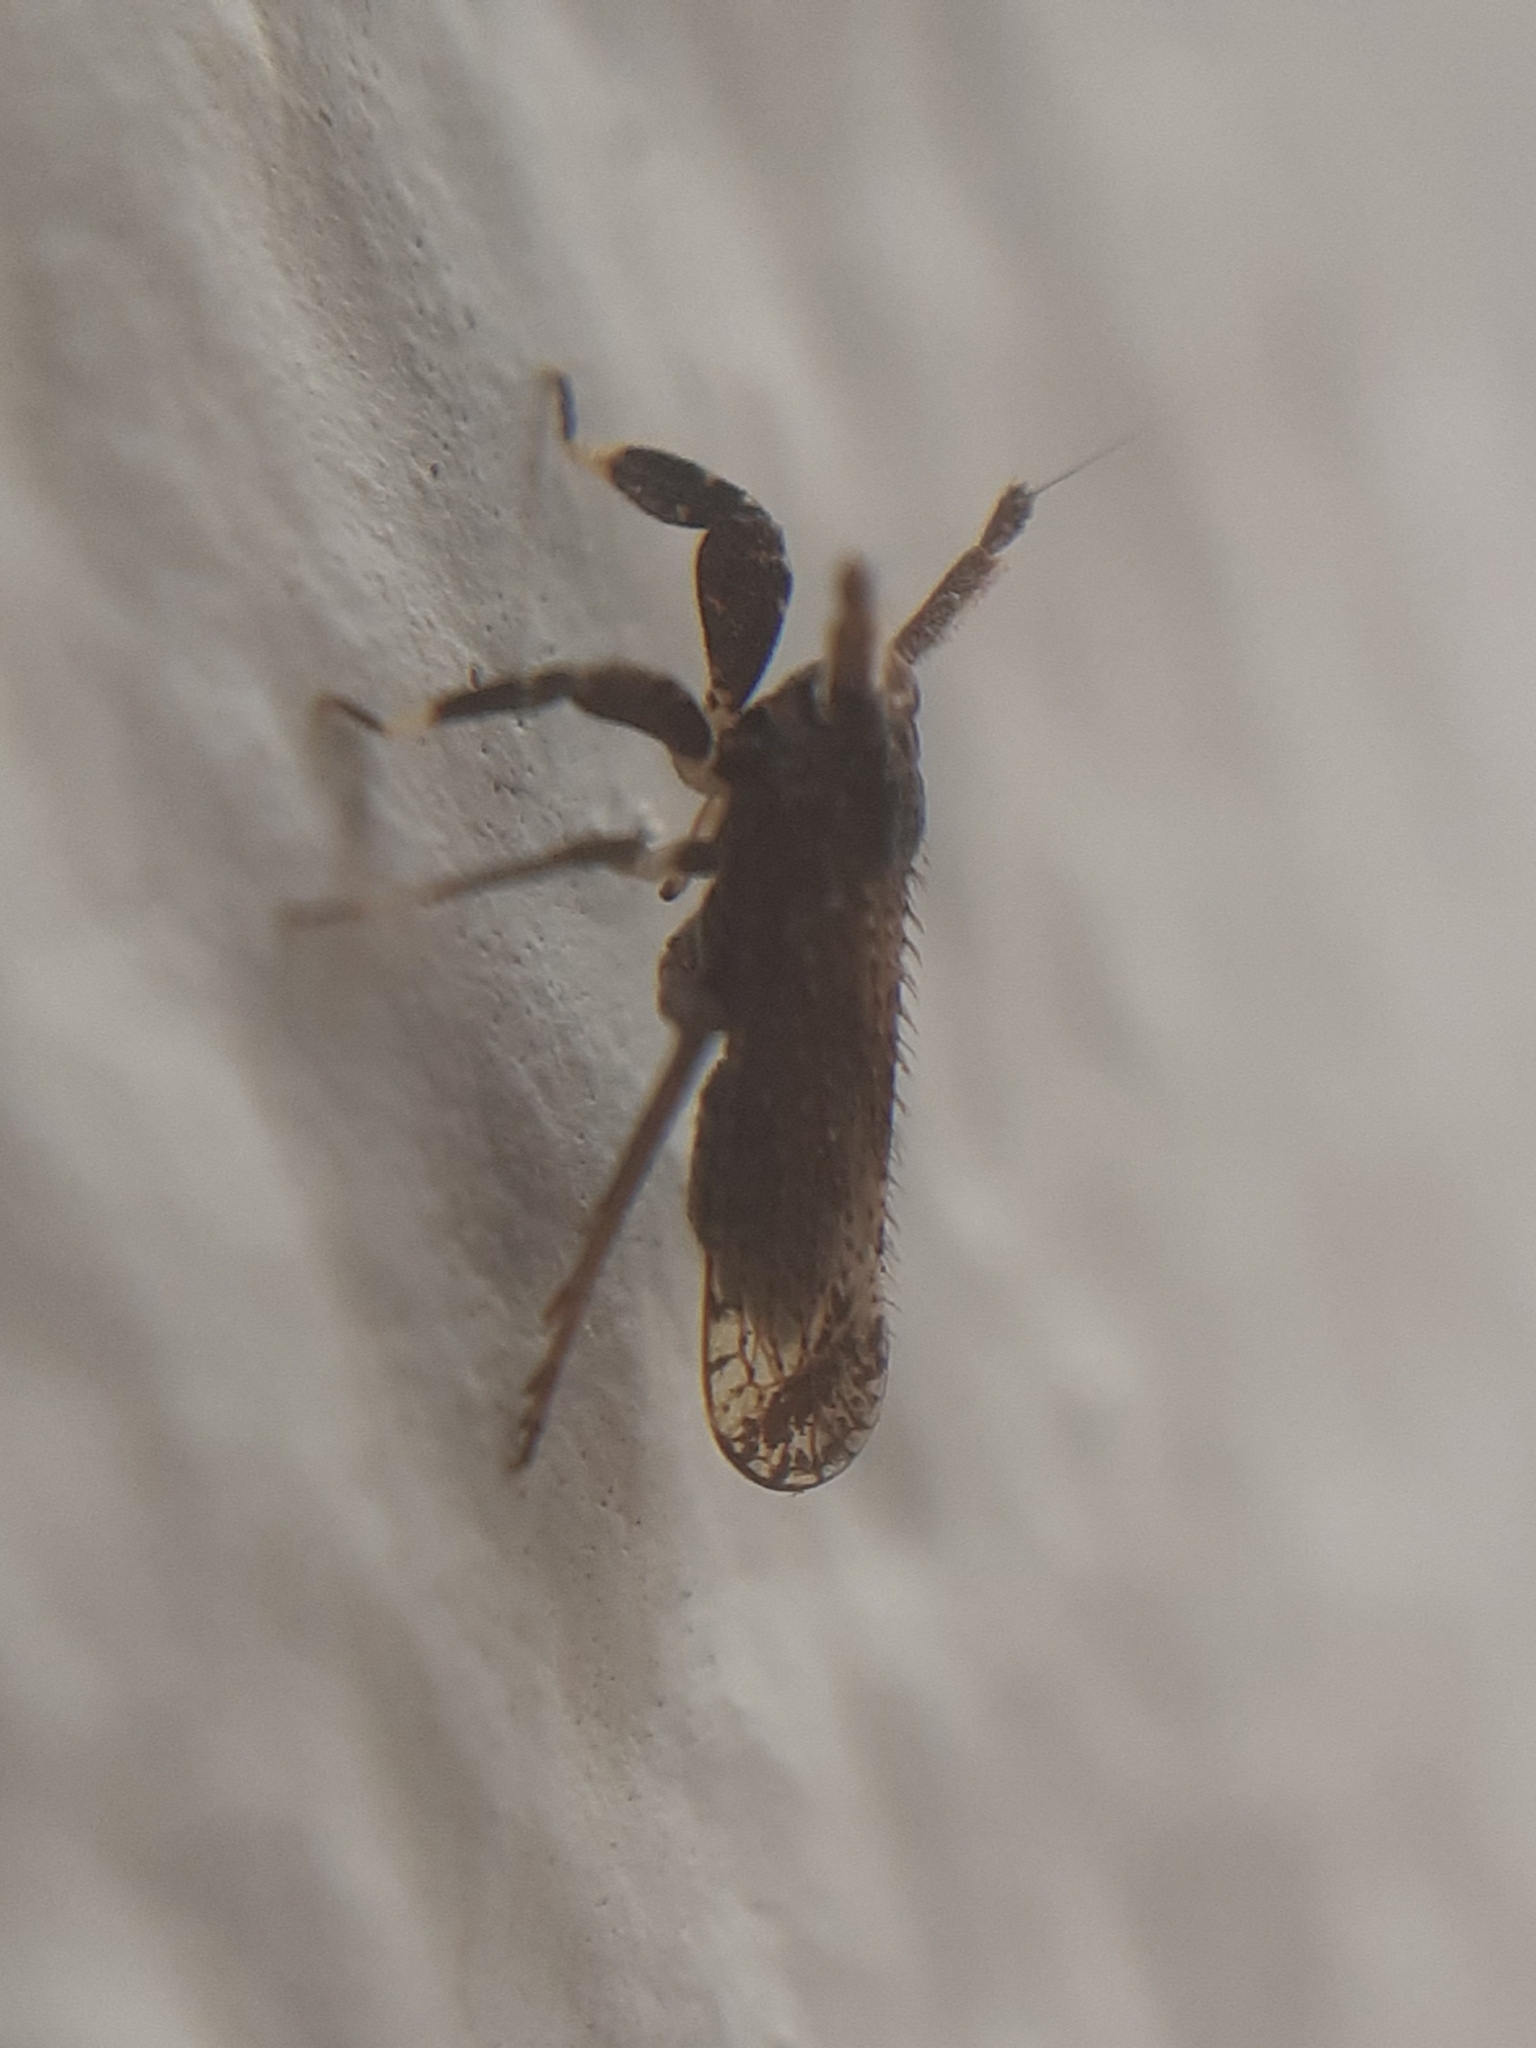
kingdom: Animalia
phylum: Arthropoda
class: Insecta
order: Hemiptera
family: Delphacidae
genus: Asiraca
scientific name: Asiraca clavicornis
